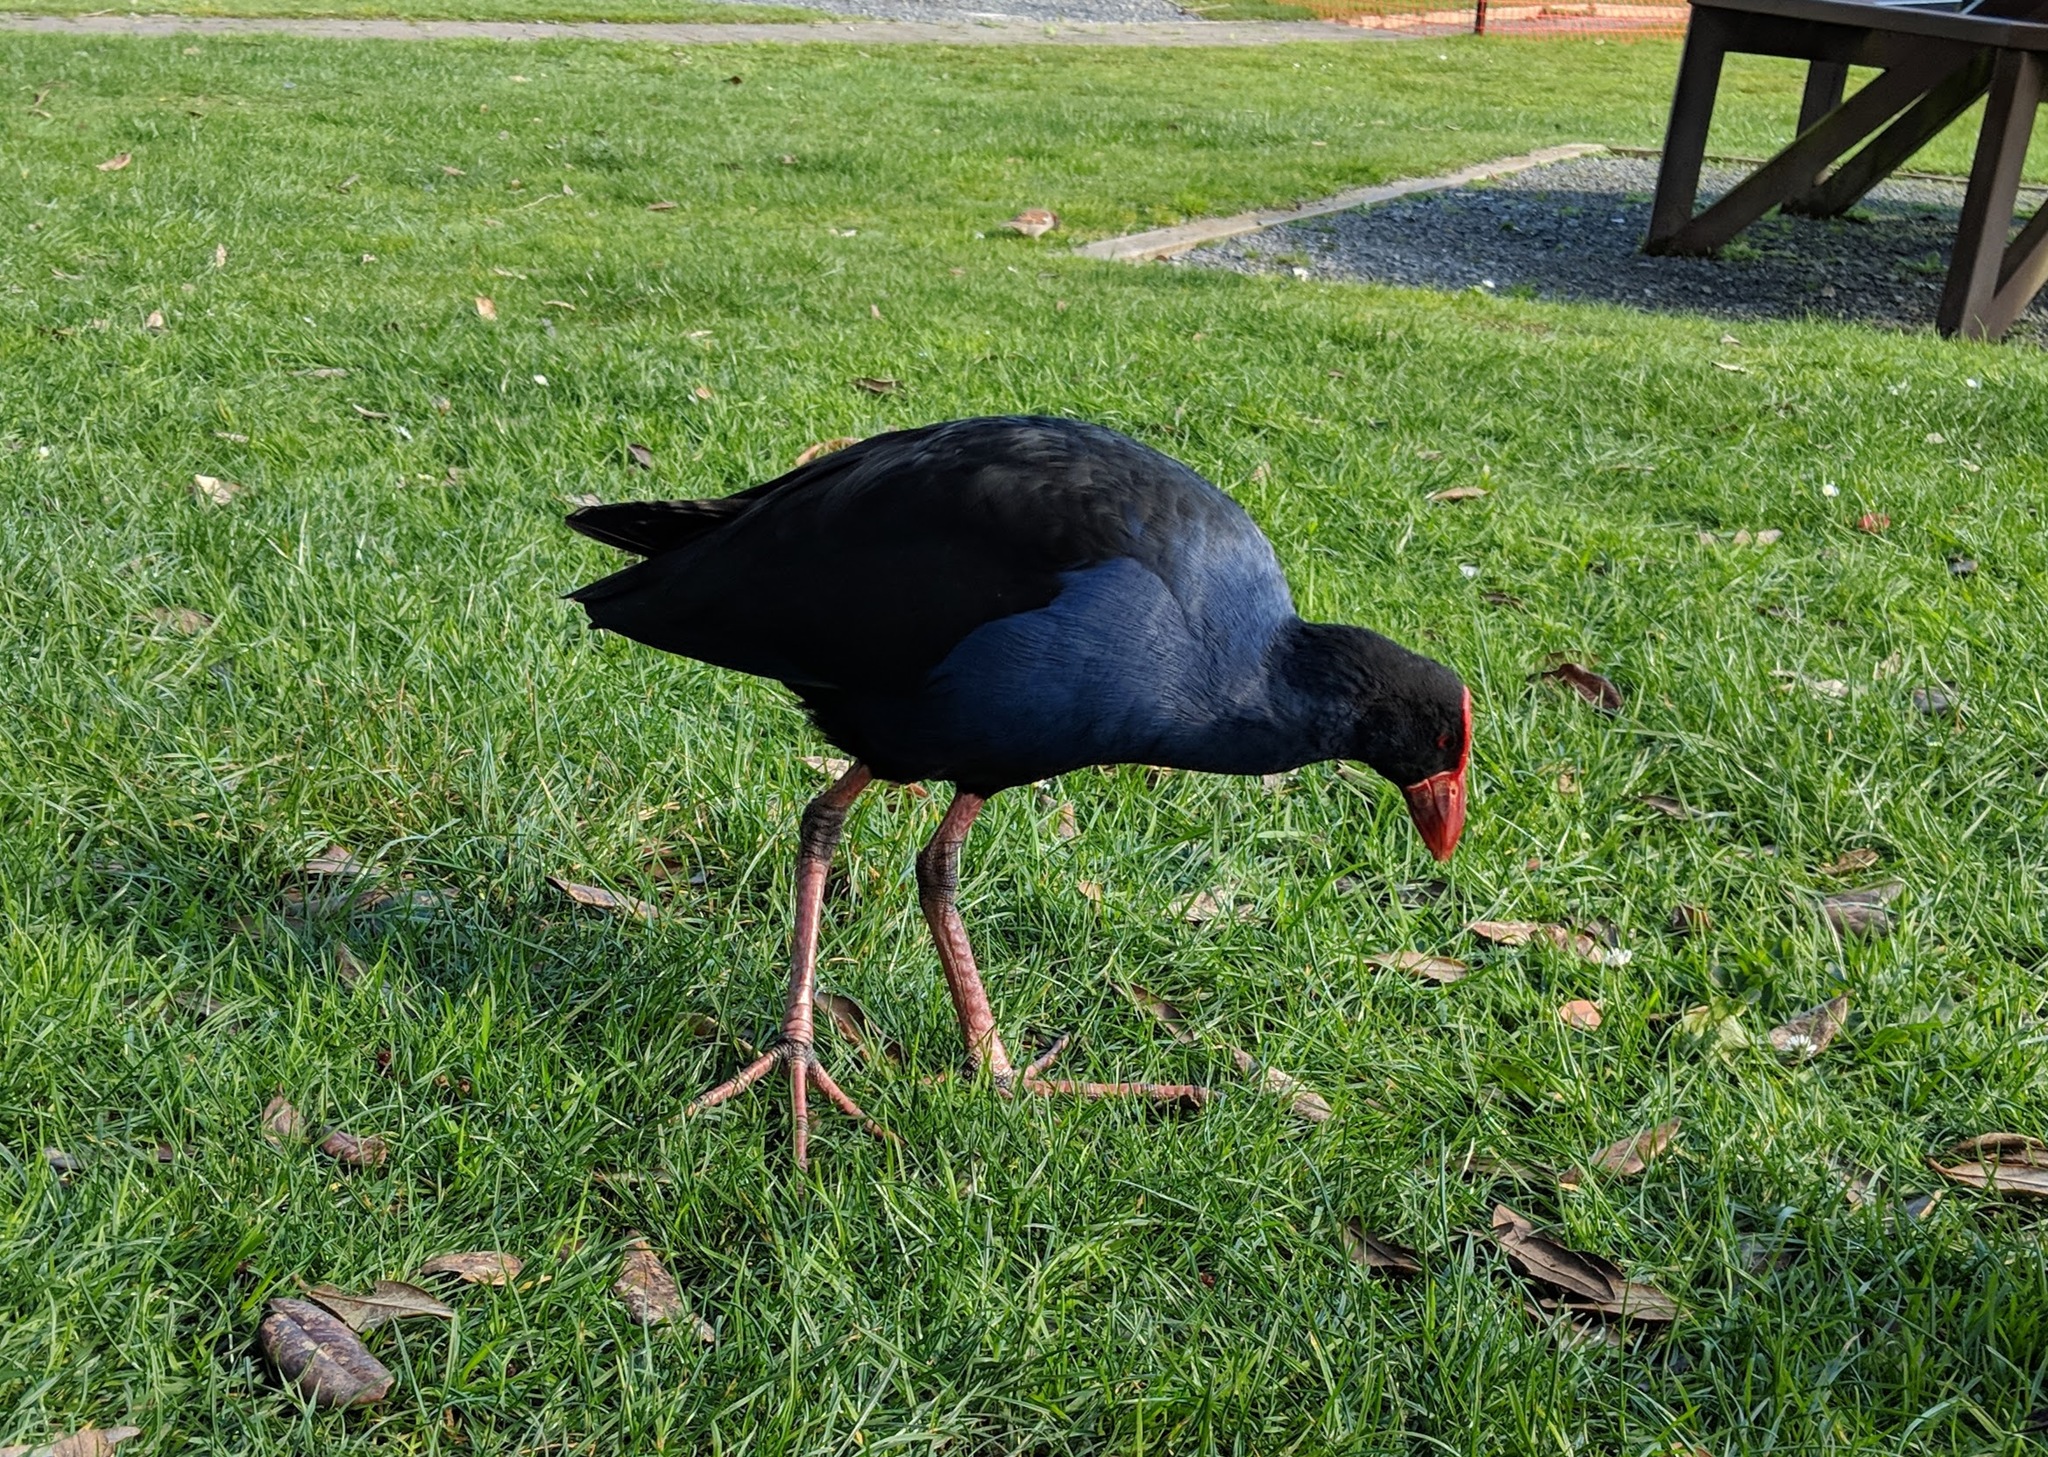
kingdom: Animalia
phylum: Chordata
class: Aves
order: Gruiformes
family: Rallidae
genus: Porphyrio
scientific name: Porphyrio melanotus
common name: Australasian swamphen
